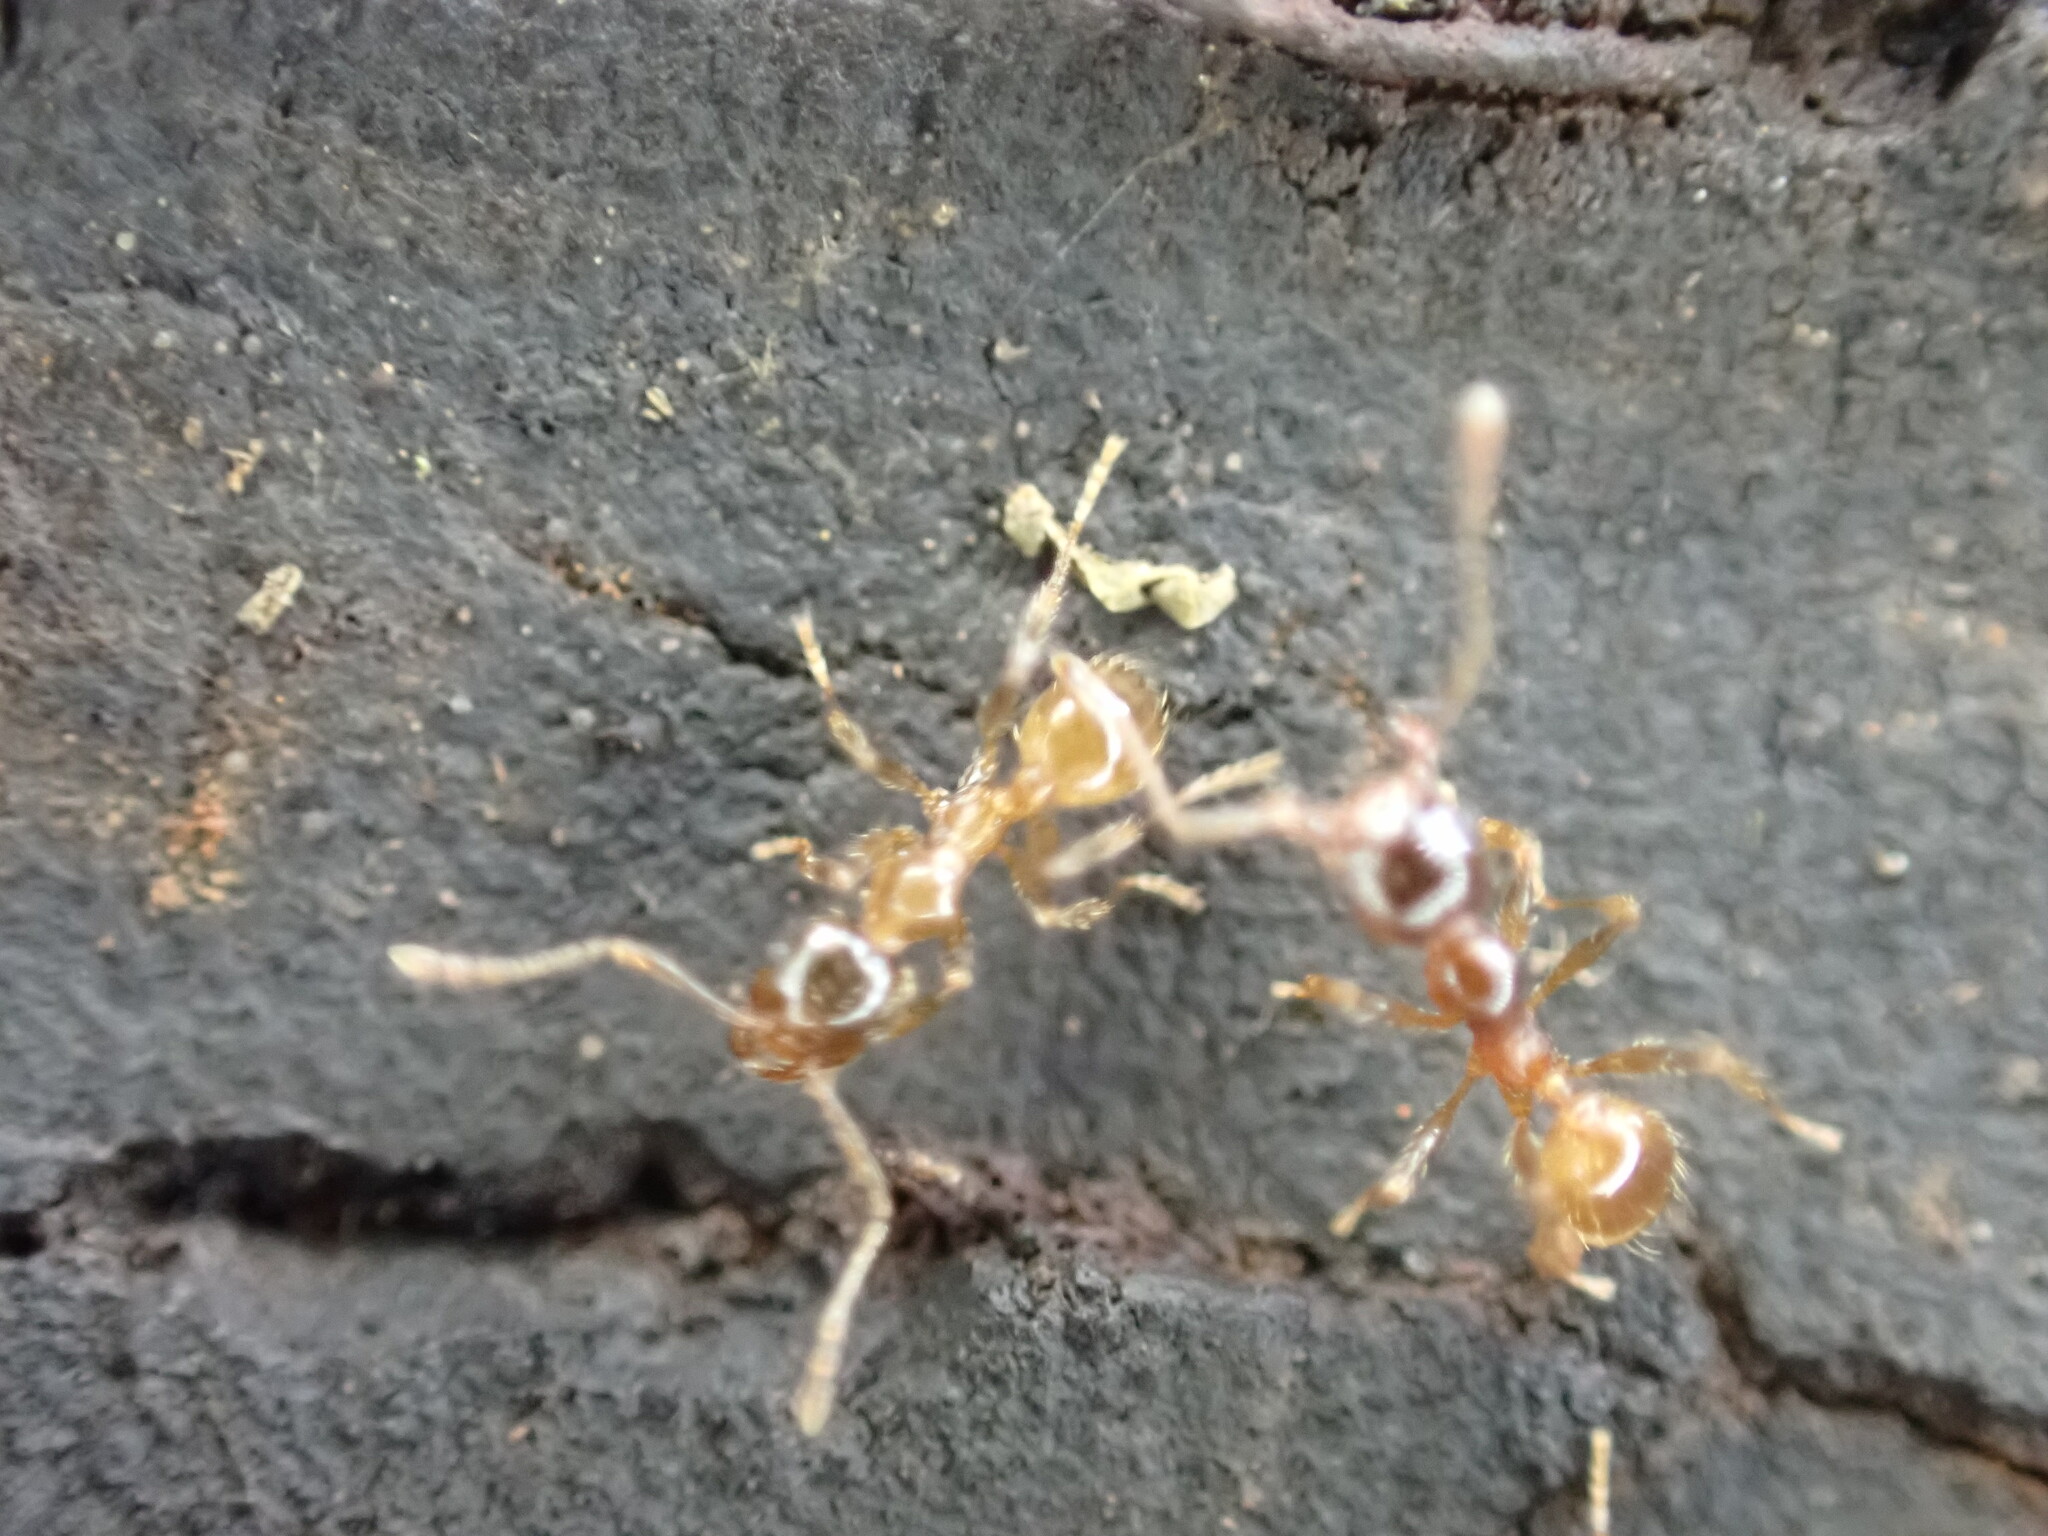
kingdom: Animalia
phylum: Arthropoda
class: Insecta
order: Hymenoptera
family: Formicidae
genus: Pheidole
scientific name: Pheidole pallidula
